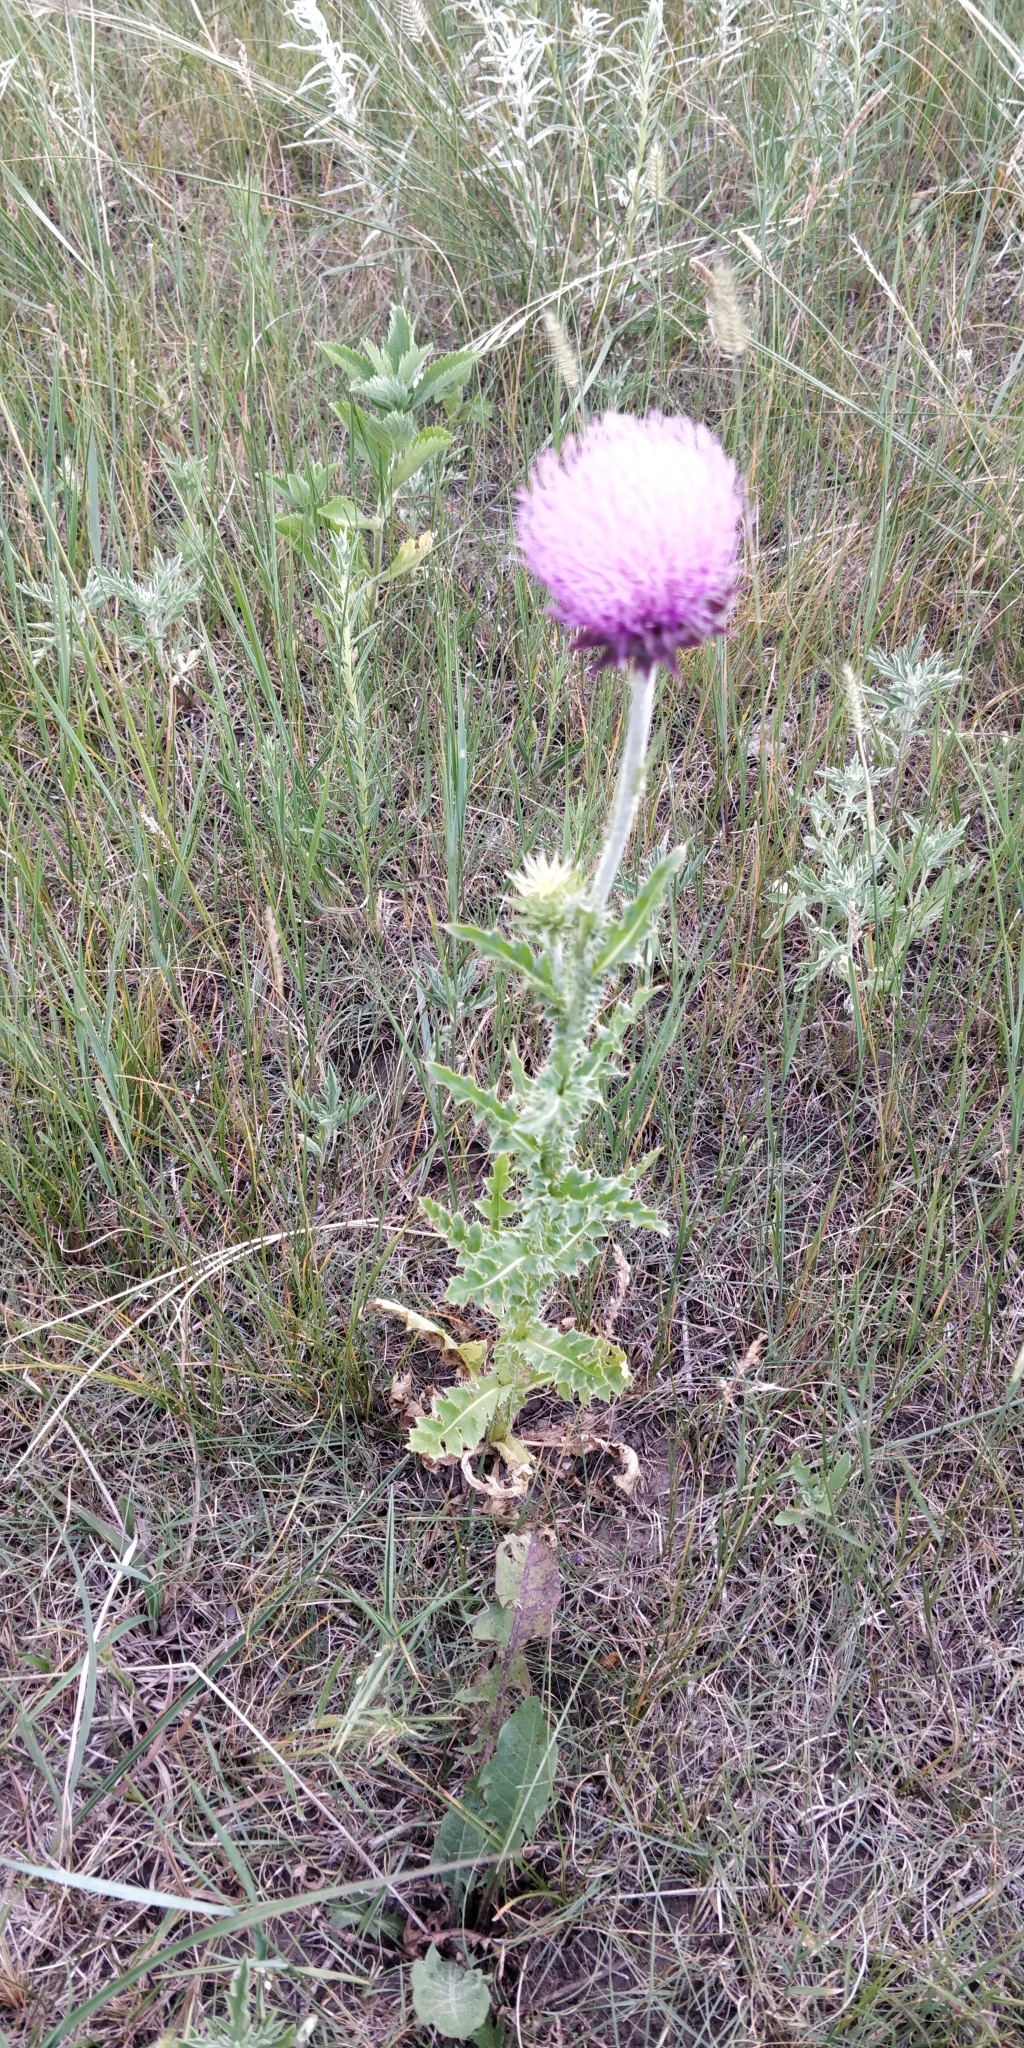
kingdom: Plantae
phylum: Tracheophyta
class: Magnoliopsida
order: Asterales
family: Asteraceae
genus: Carduus
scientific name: Carduus nutans
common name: Musk thistle
